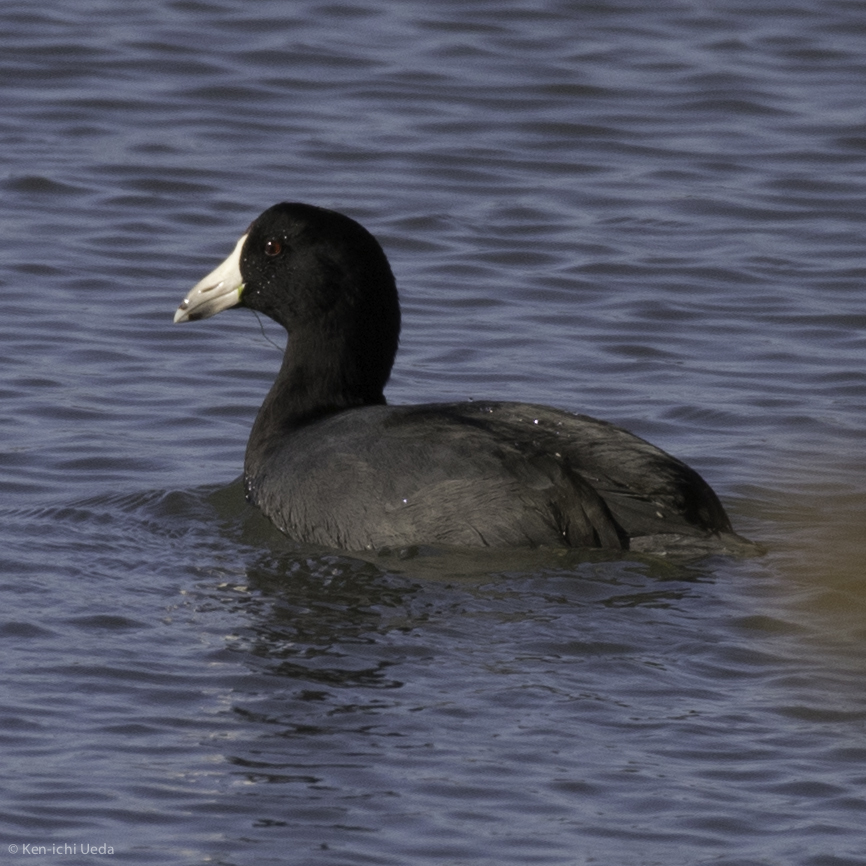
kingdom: Animalia
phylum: Chordata
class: Aves
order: Gruiformes
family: Rallidae
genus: Fulica
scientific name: Fulica americana
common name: American coot
